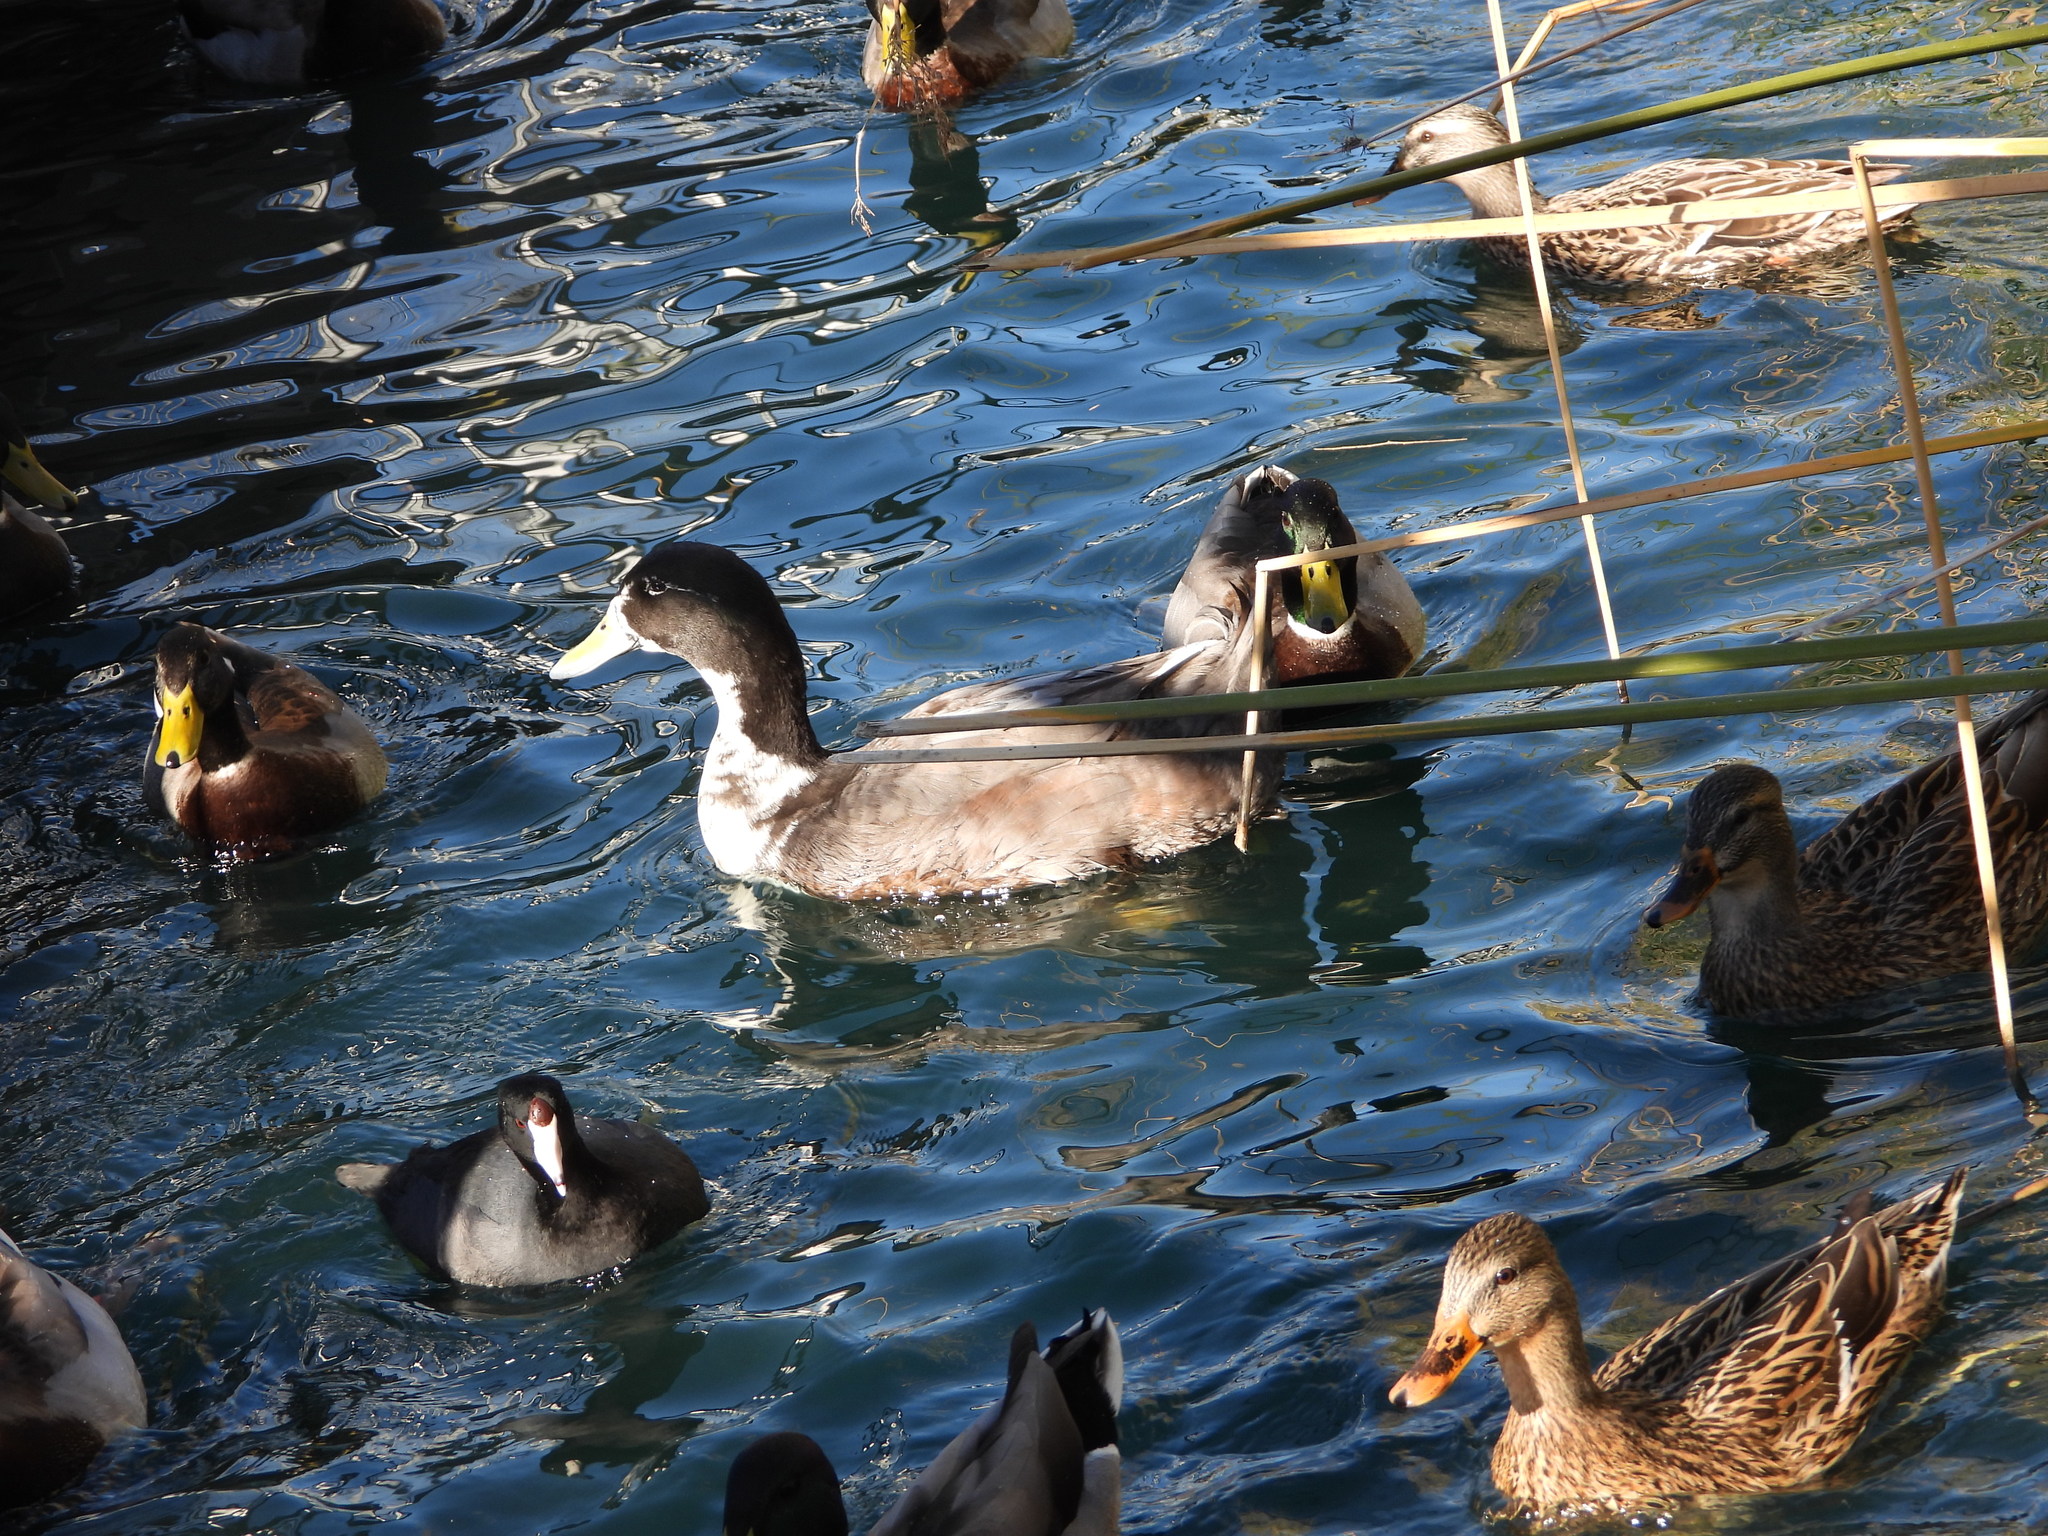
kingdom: Animalia
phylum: Chordata
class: Aves
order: Anseriformes
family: Anatidae
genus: Anas
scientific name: Anas platyrhynchos
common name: Mallard
